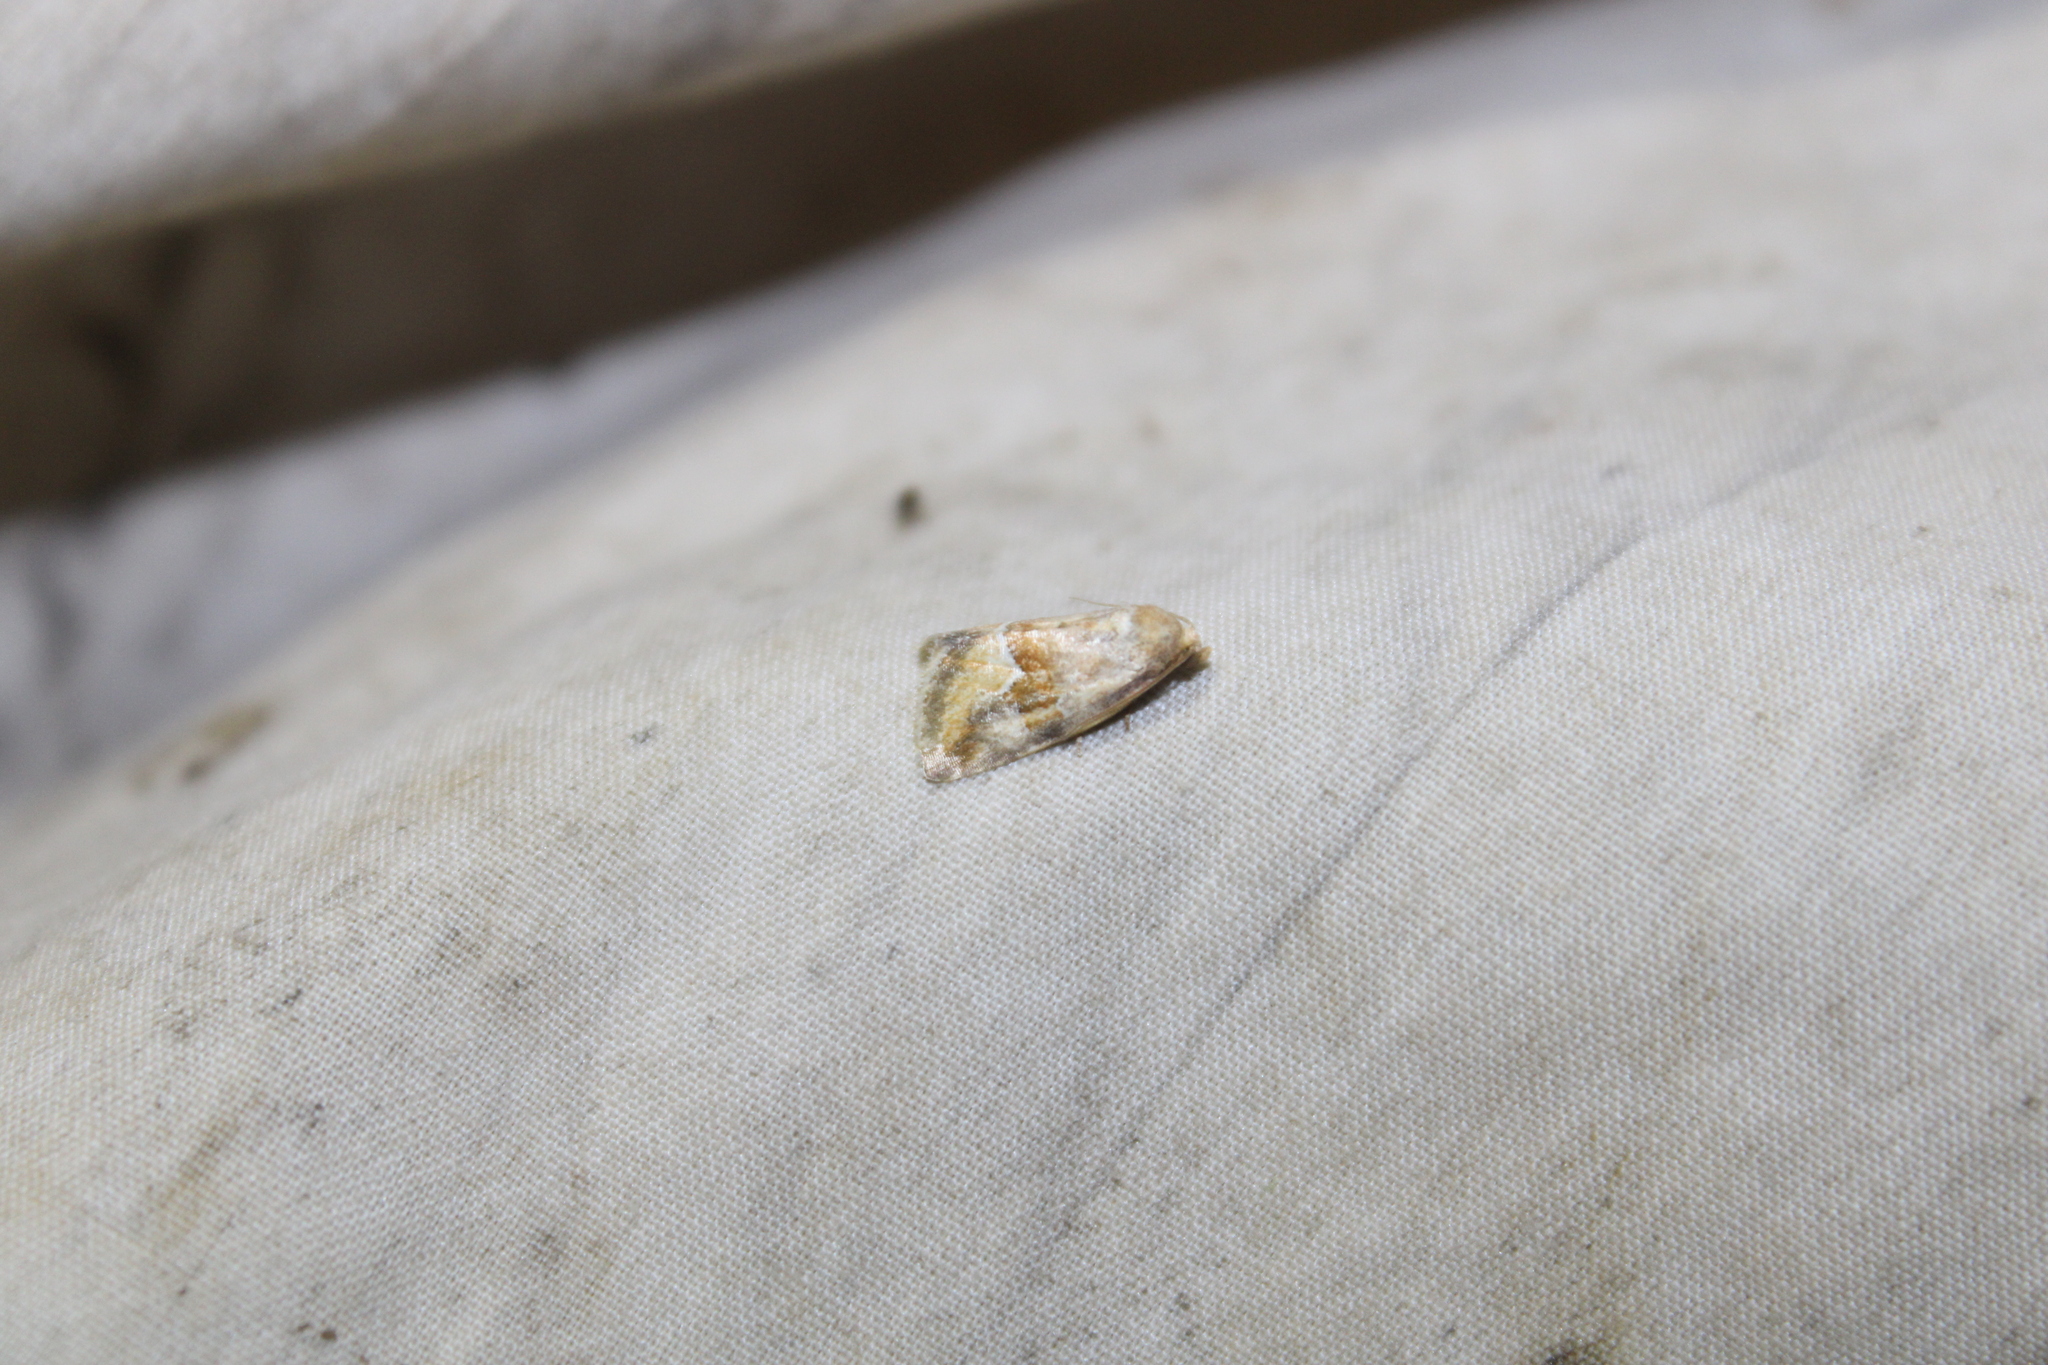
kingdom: Animalia
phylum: Arthropoda
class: Insecta
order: Lepidoptera
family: Noctuidae
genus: Deltote
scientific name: Deltote bellicula
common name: Bog glyph
